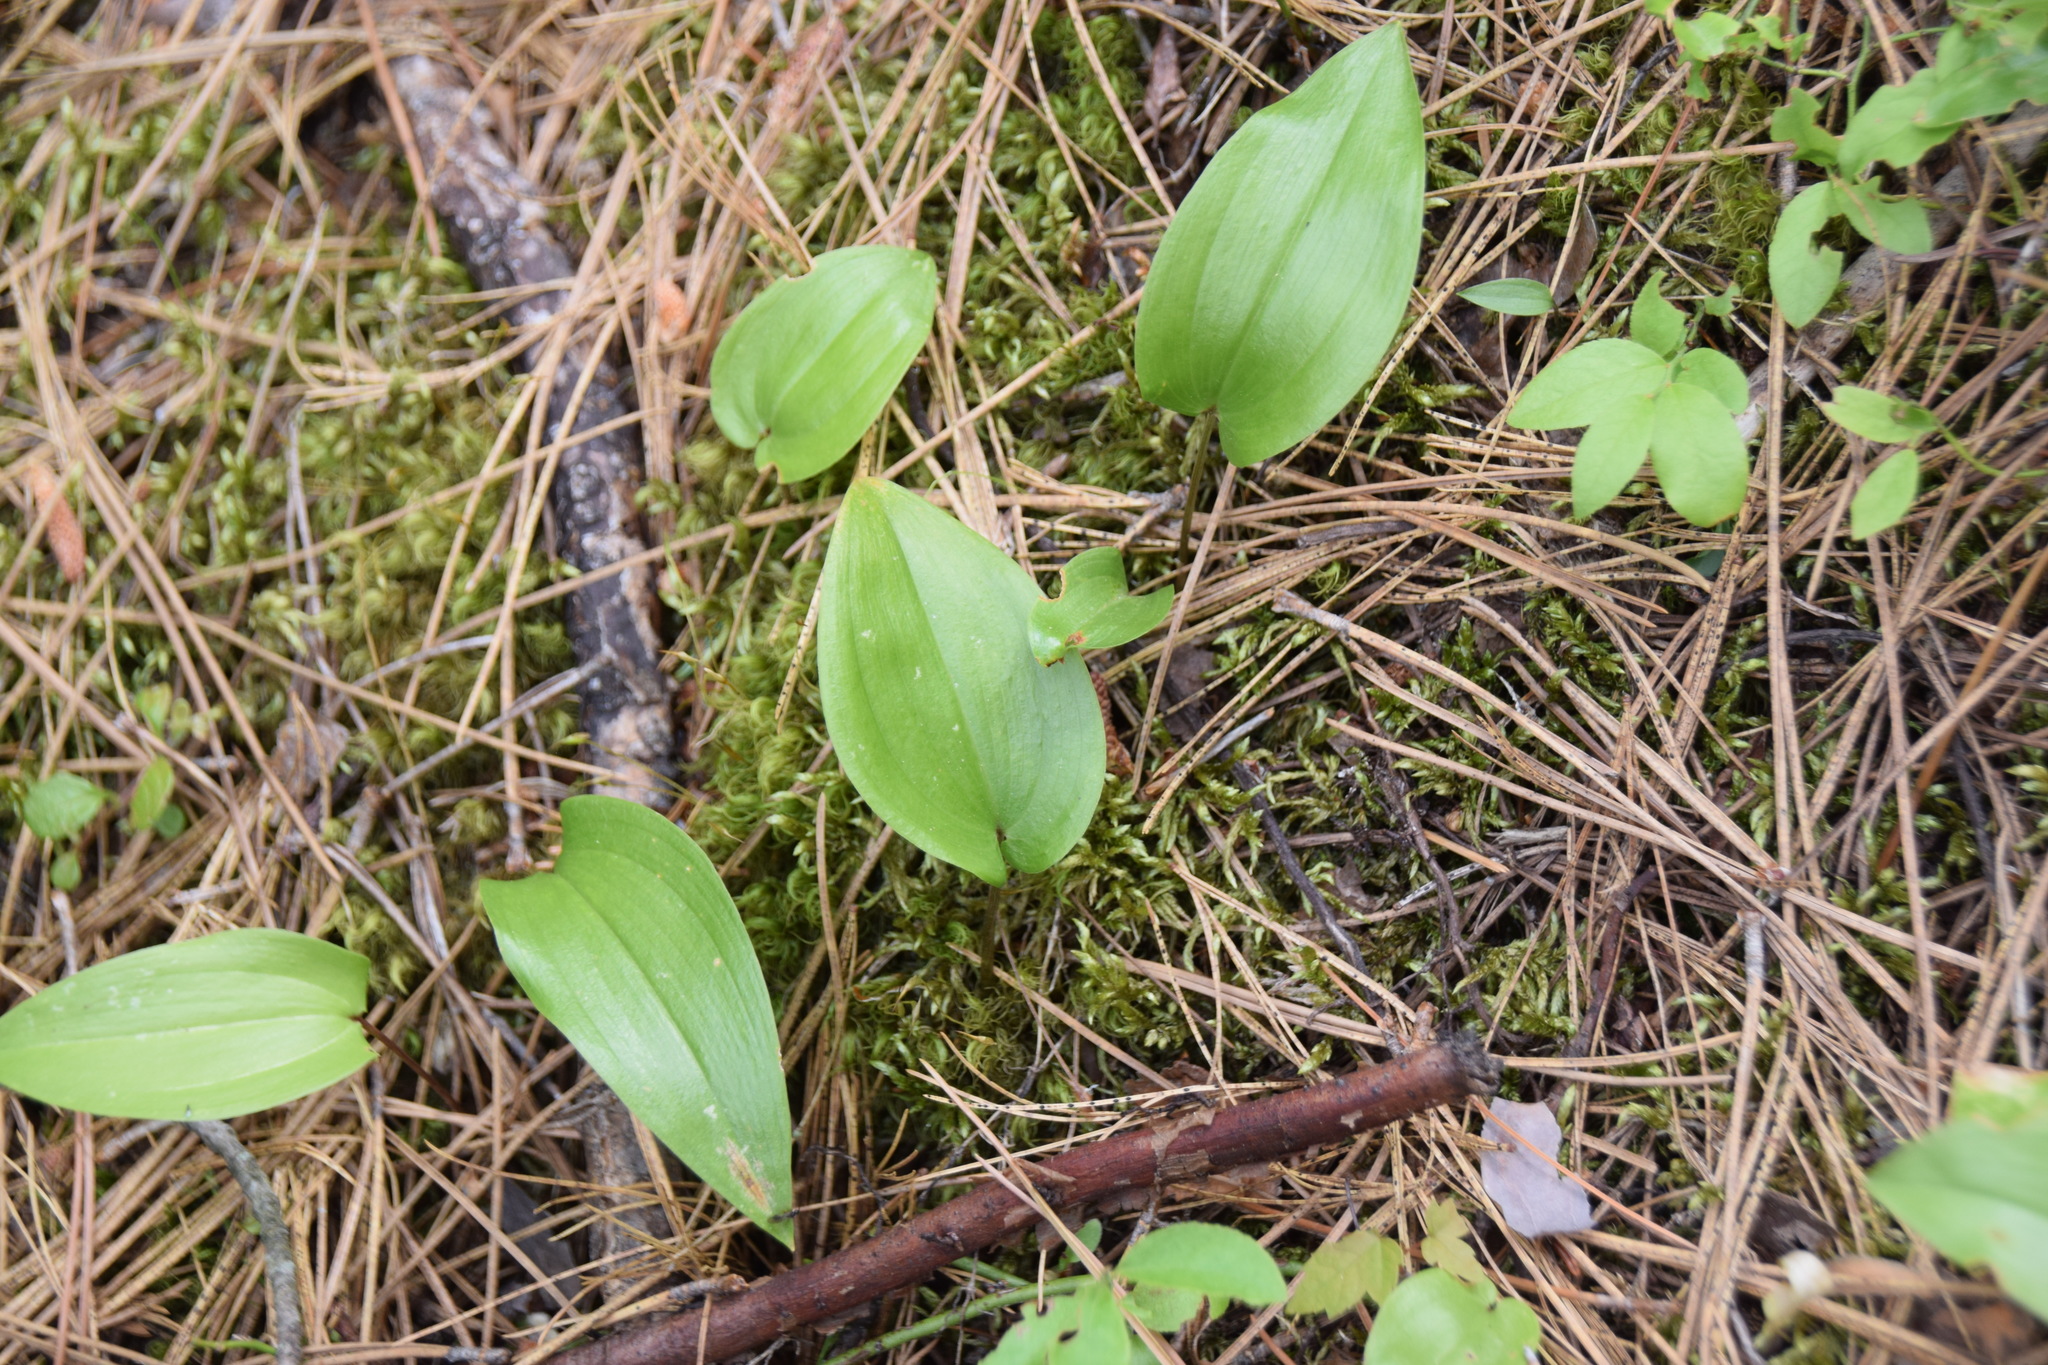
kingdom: Plantae
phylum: Tracheophyta
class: Liliopsida
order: Asparagales
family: Asparagaceae
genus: Maianthemum
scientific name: Maianthemum canadense
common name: False lily-of-the-valley
